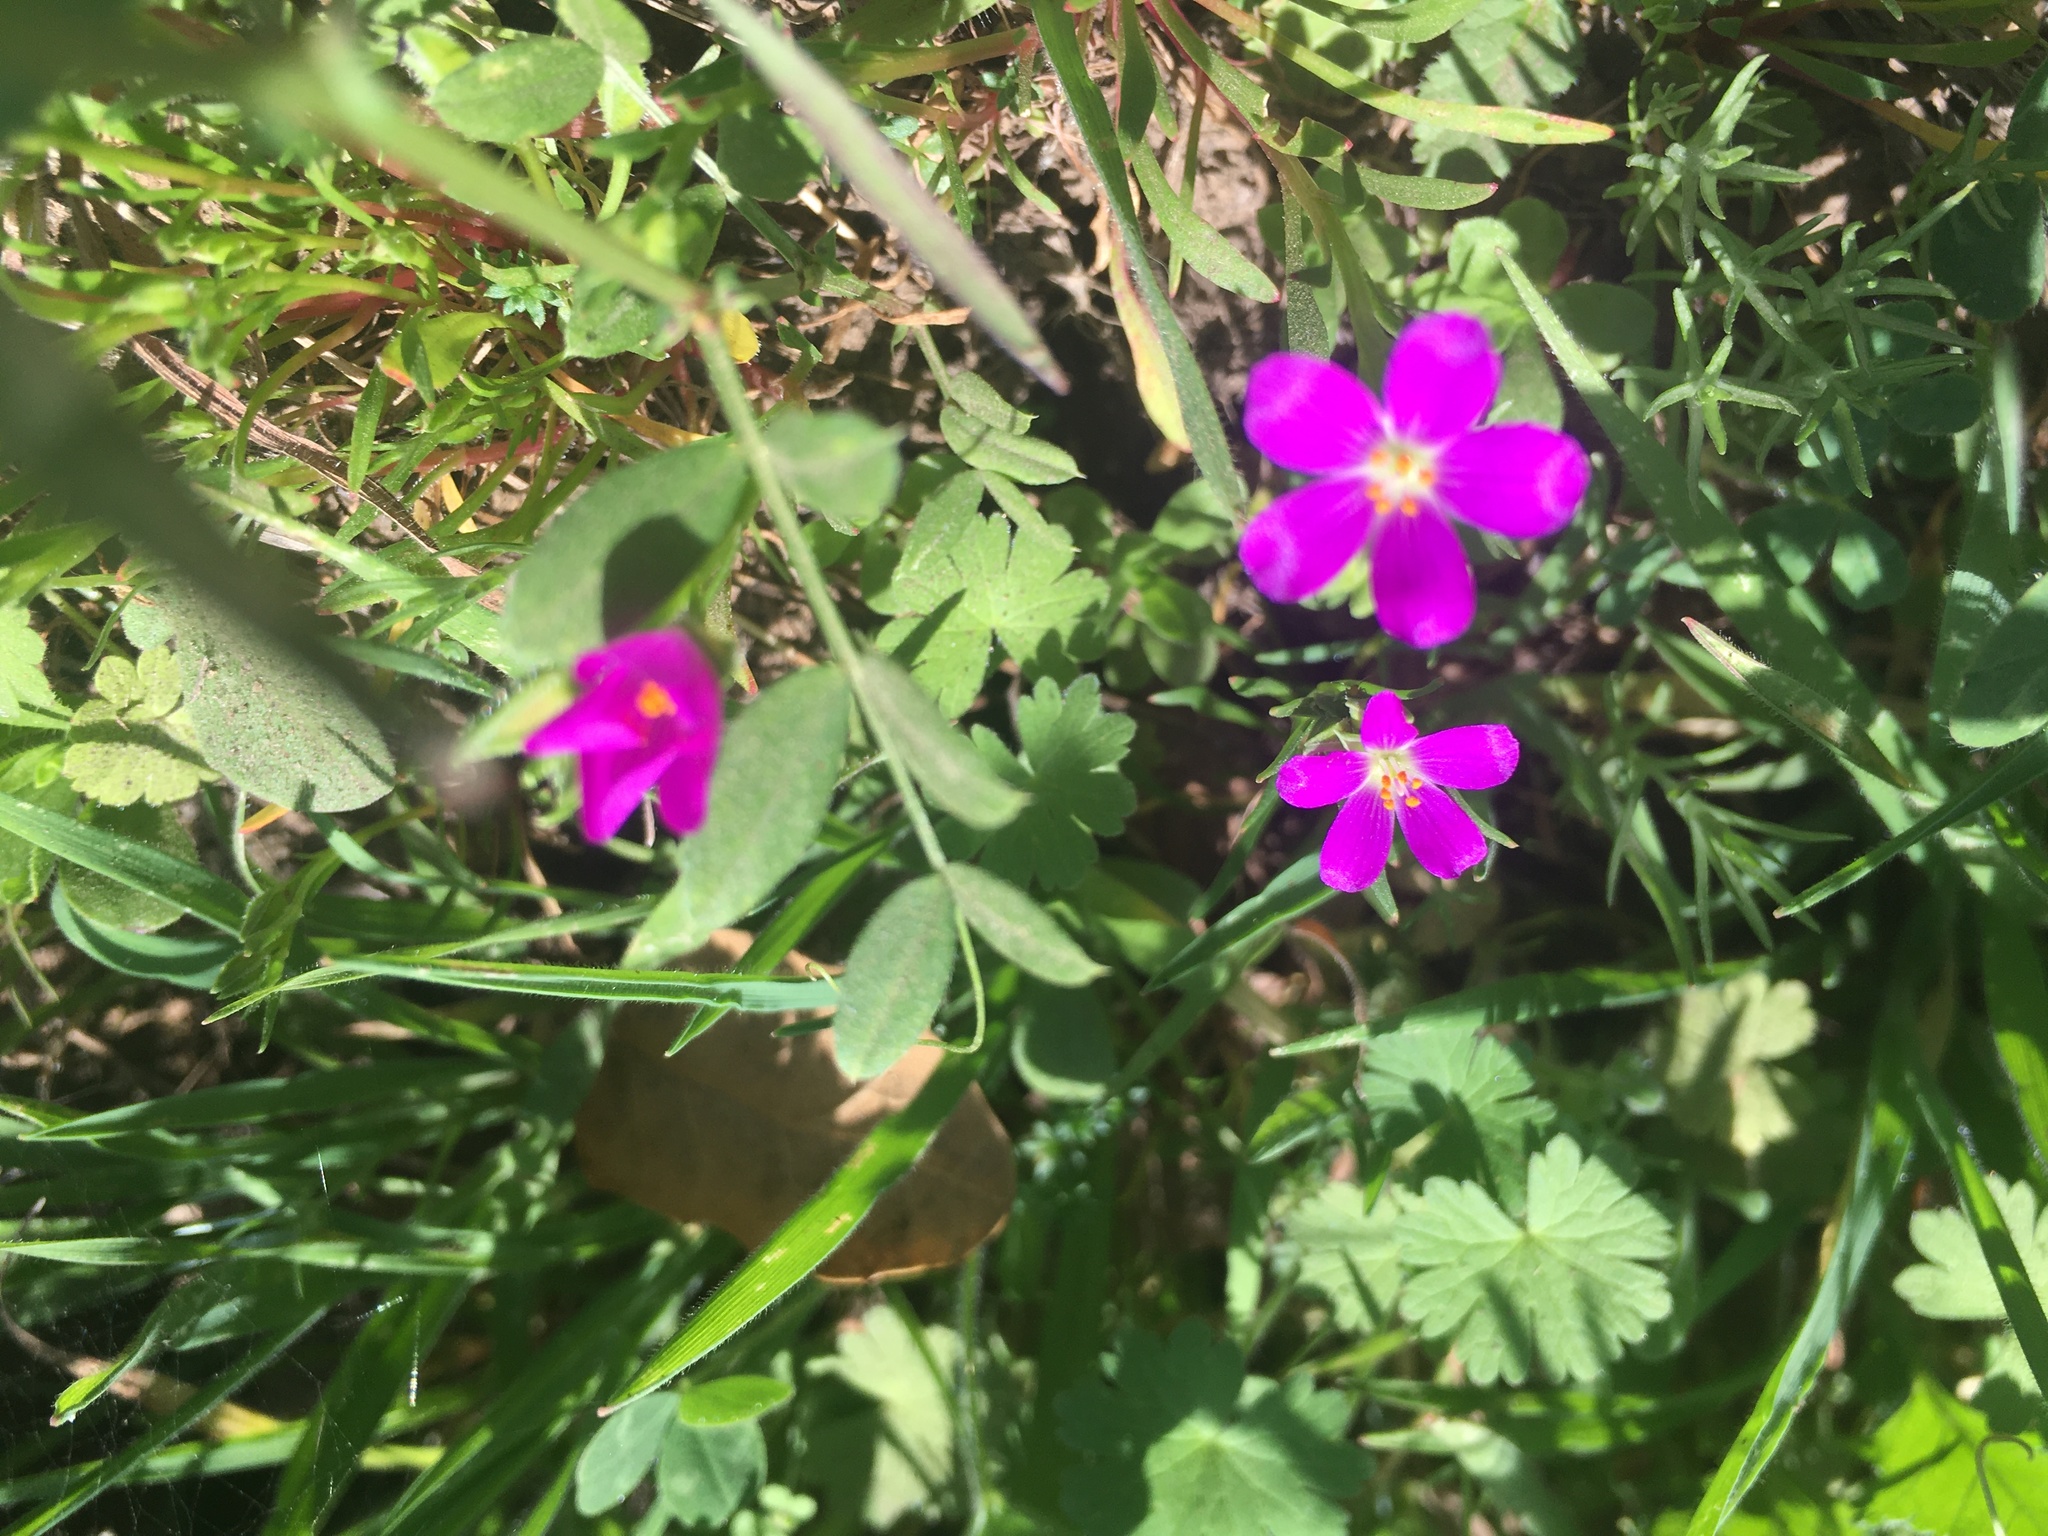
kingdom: Plantae
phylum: Tracheophyta
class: Magnoliopsida
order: Caryophyllales
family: Montiaceae
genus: Calandrinia
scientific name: Calandrinia menziesii
